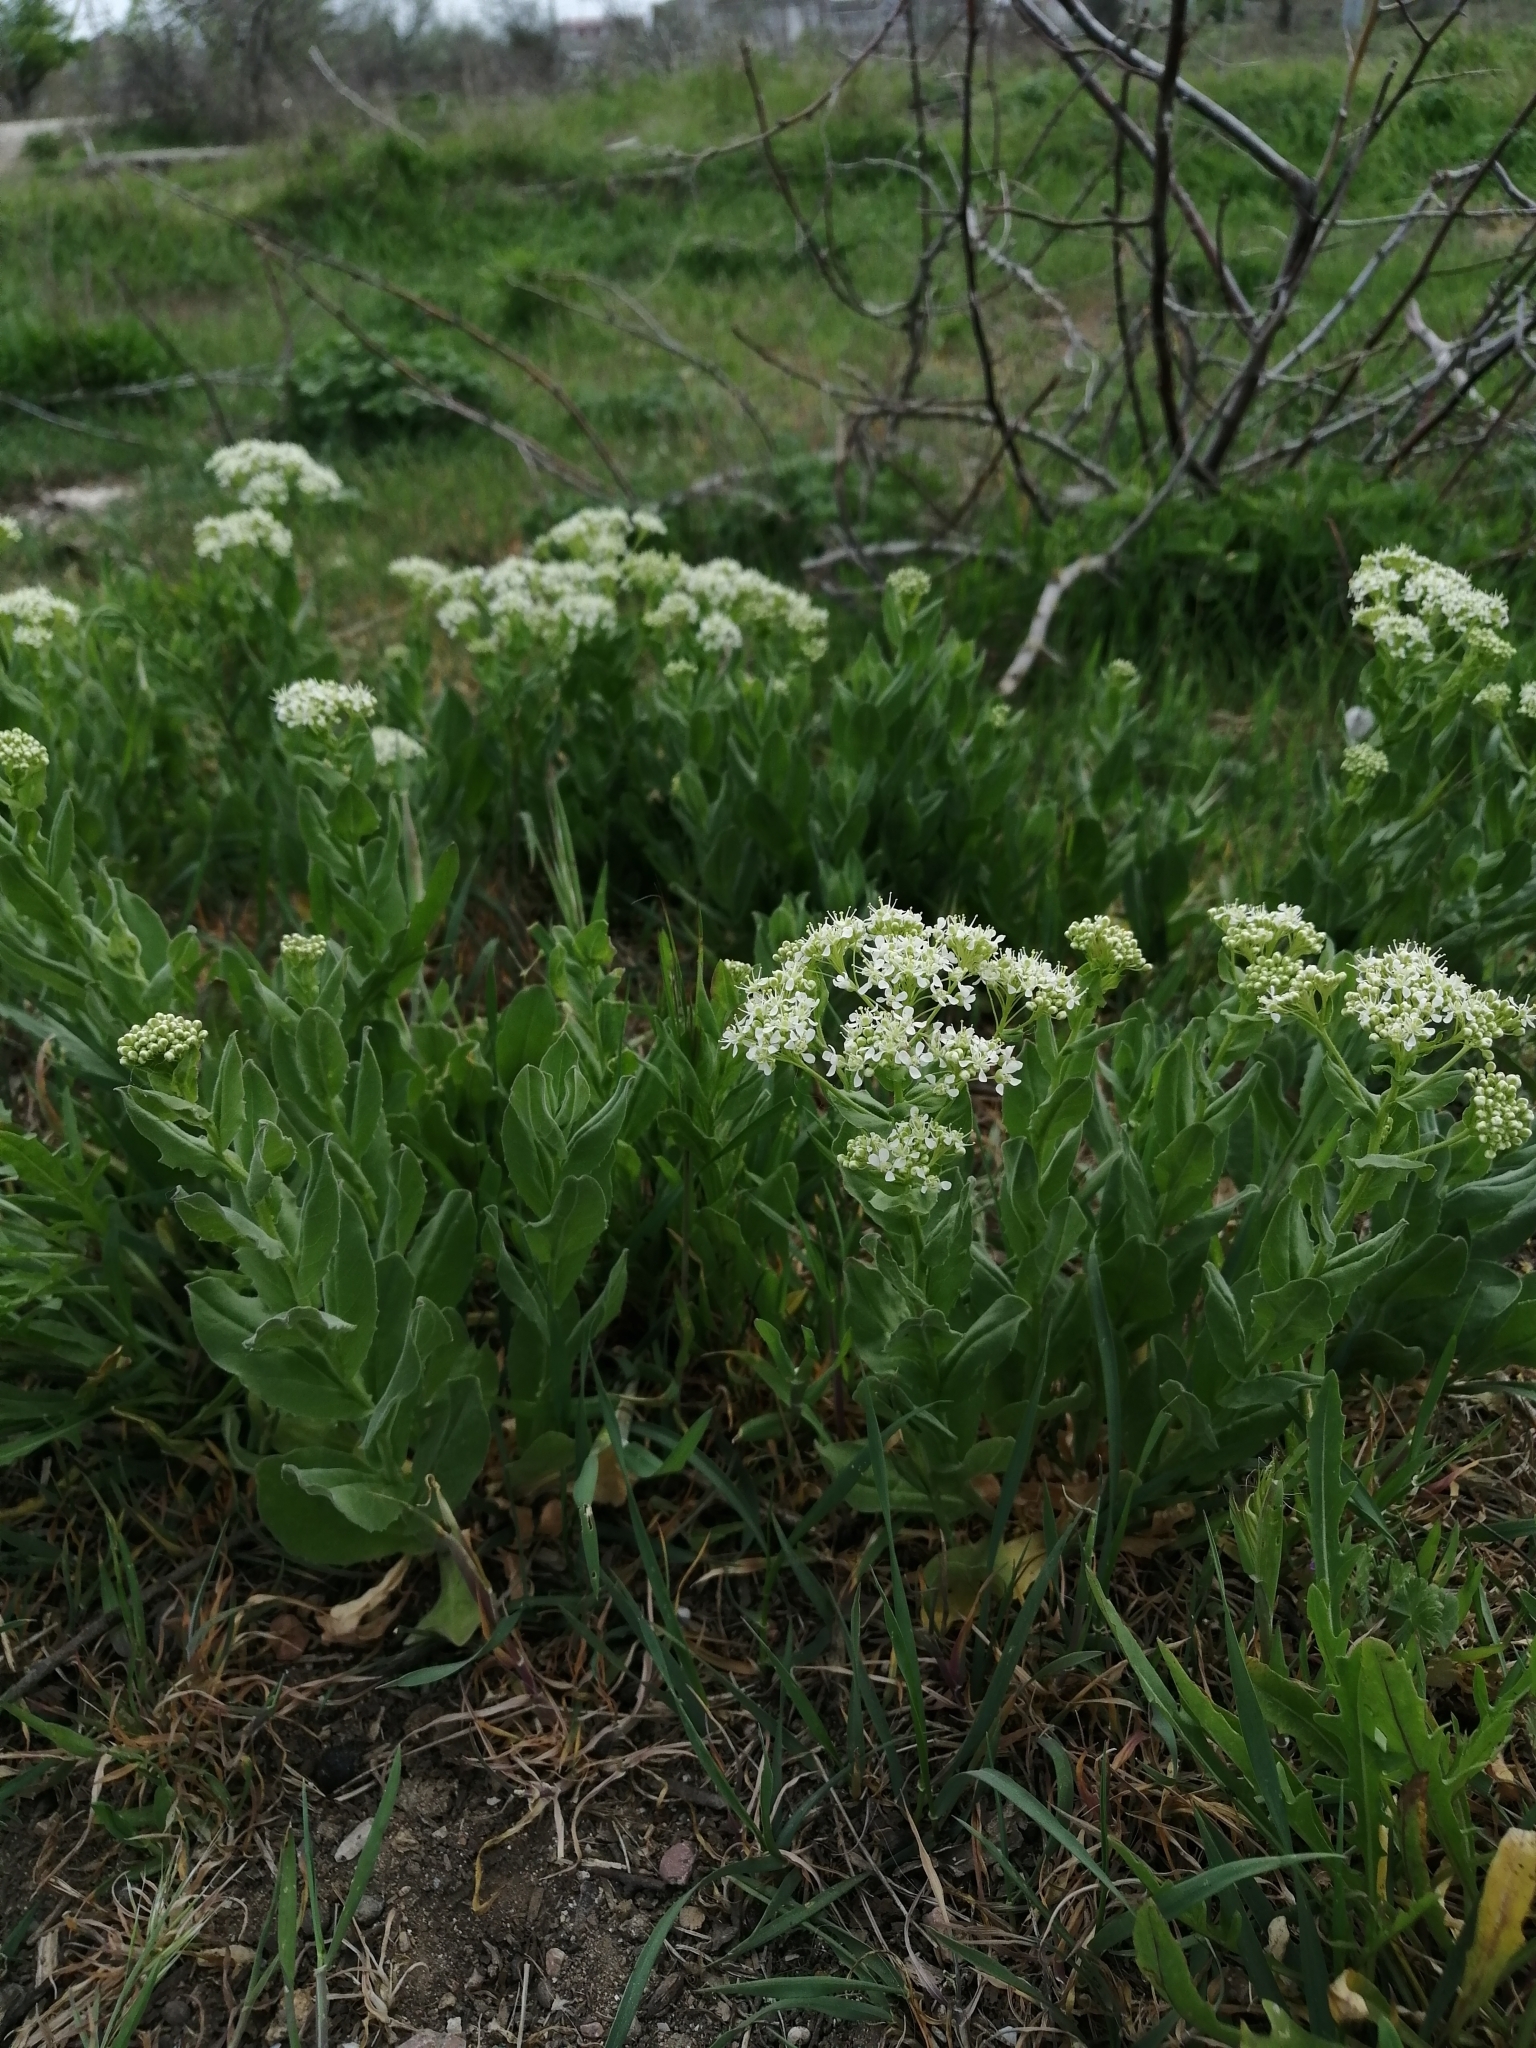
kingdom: Plantae
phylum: Tracheophyta
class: Magnoliopsida
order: Brassicales
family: Brassicaceae
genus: Lepidium
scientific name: Lepidium draba
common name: Hoary cress
